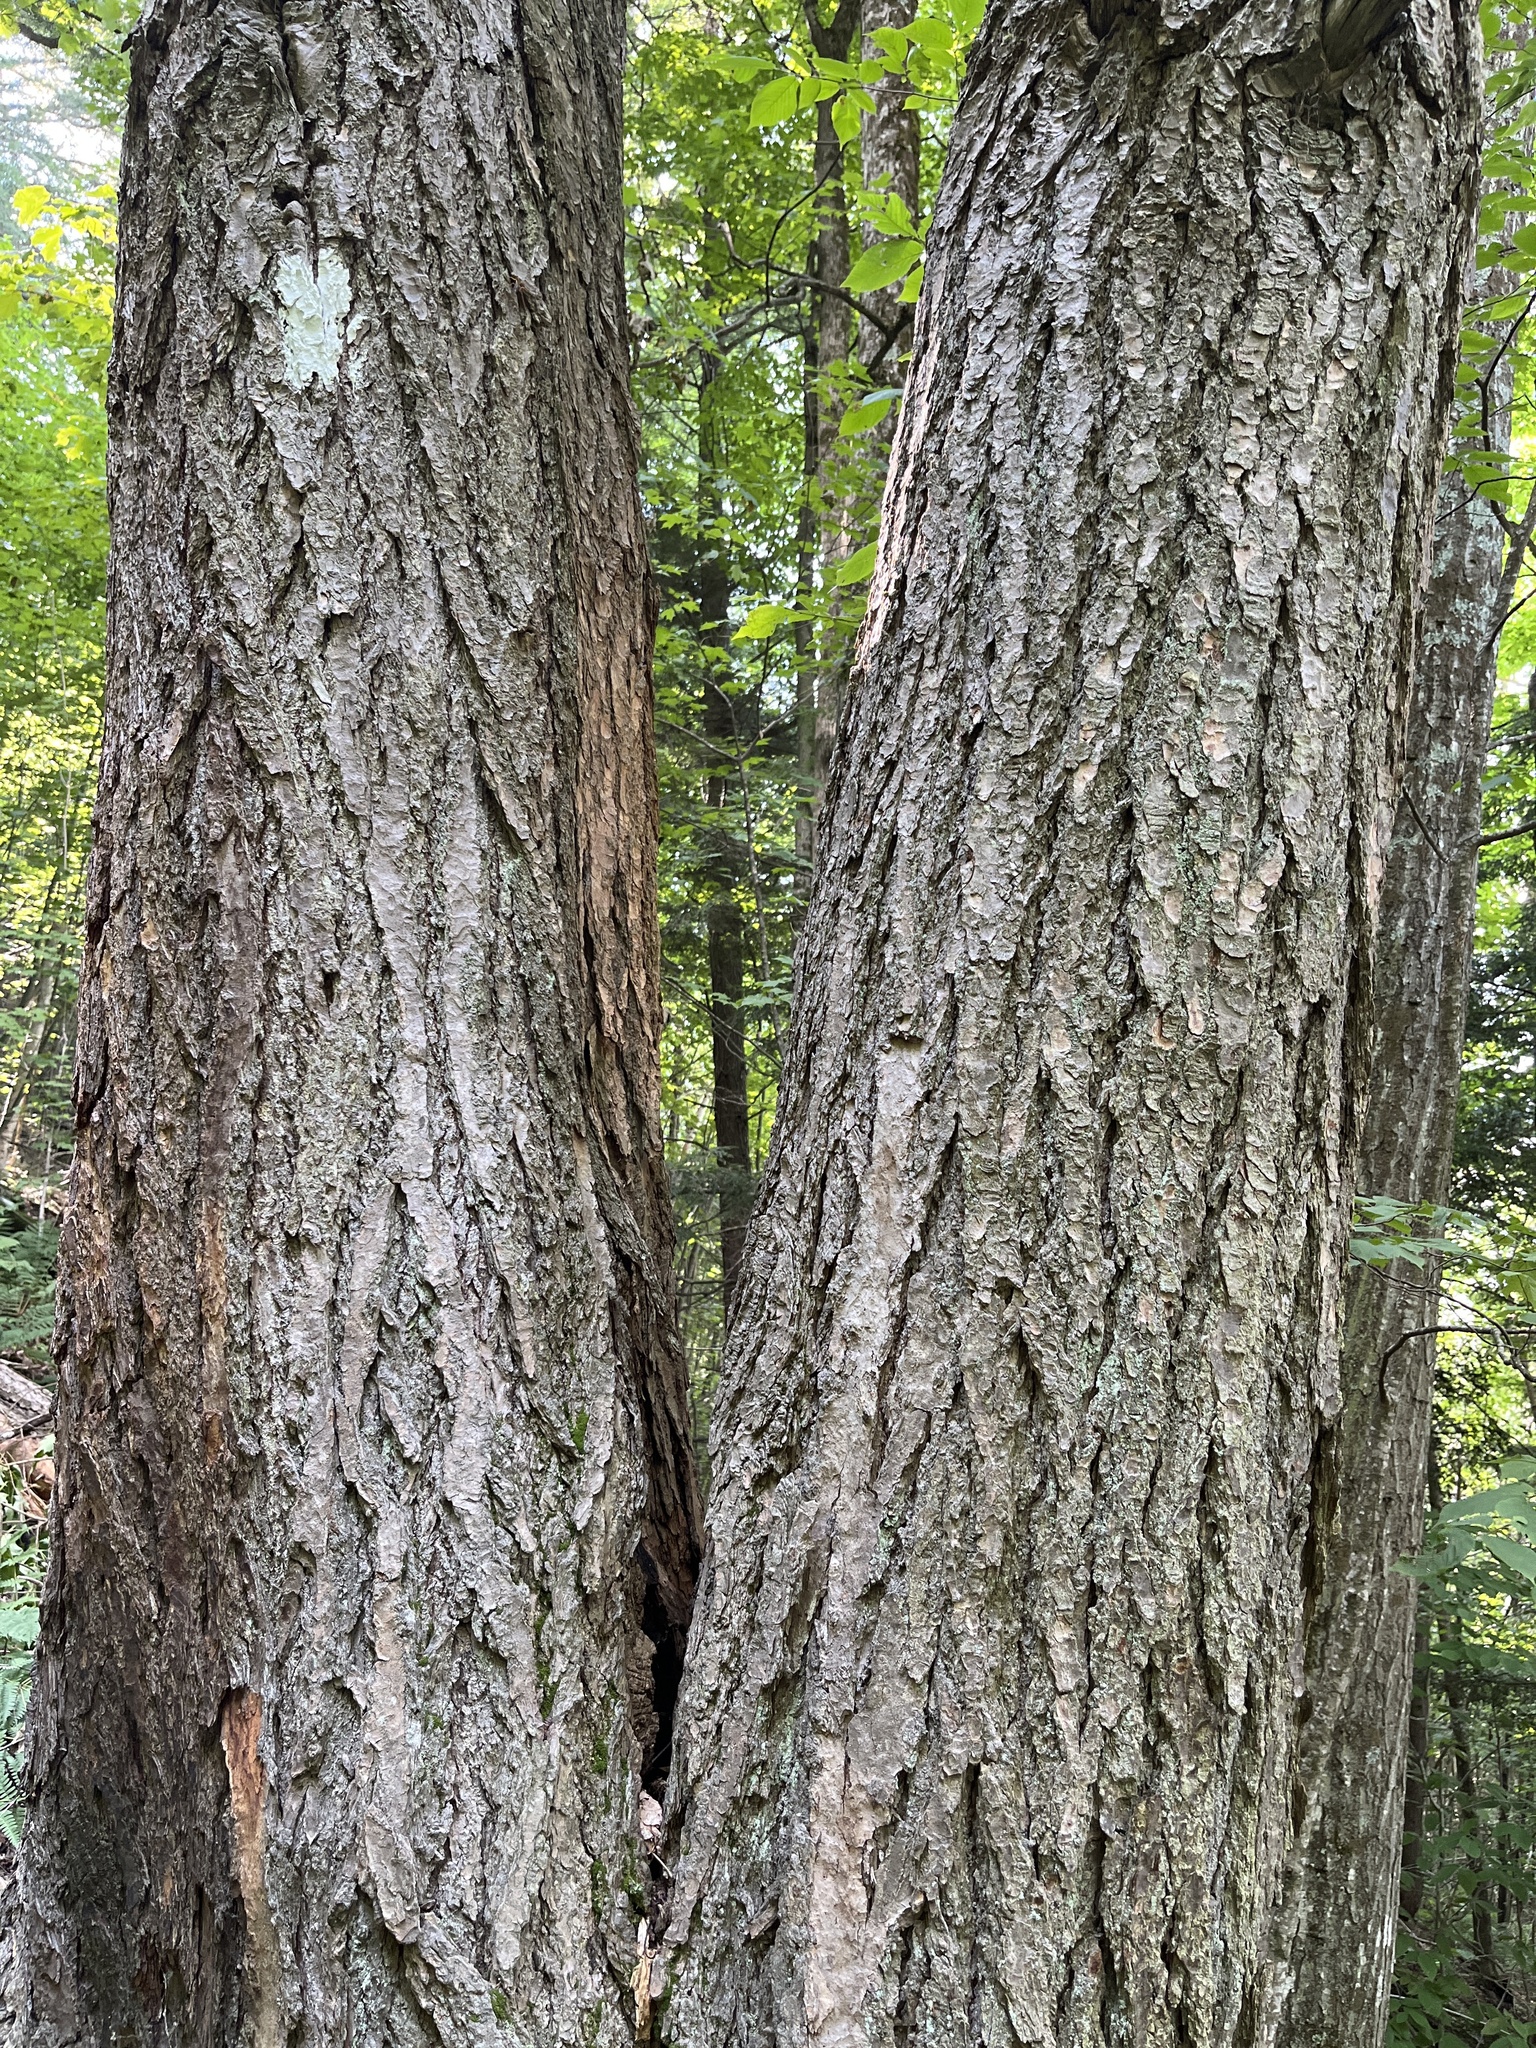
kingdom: Plantae
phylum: Tracheophyta
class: Pinopsida
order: Pinales
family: Pinaceae
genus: Tsuga
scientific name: Tsuga canadensis
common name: Eastern hemlock
